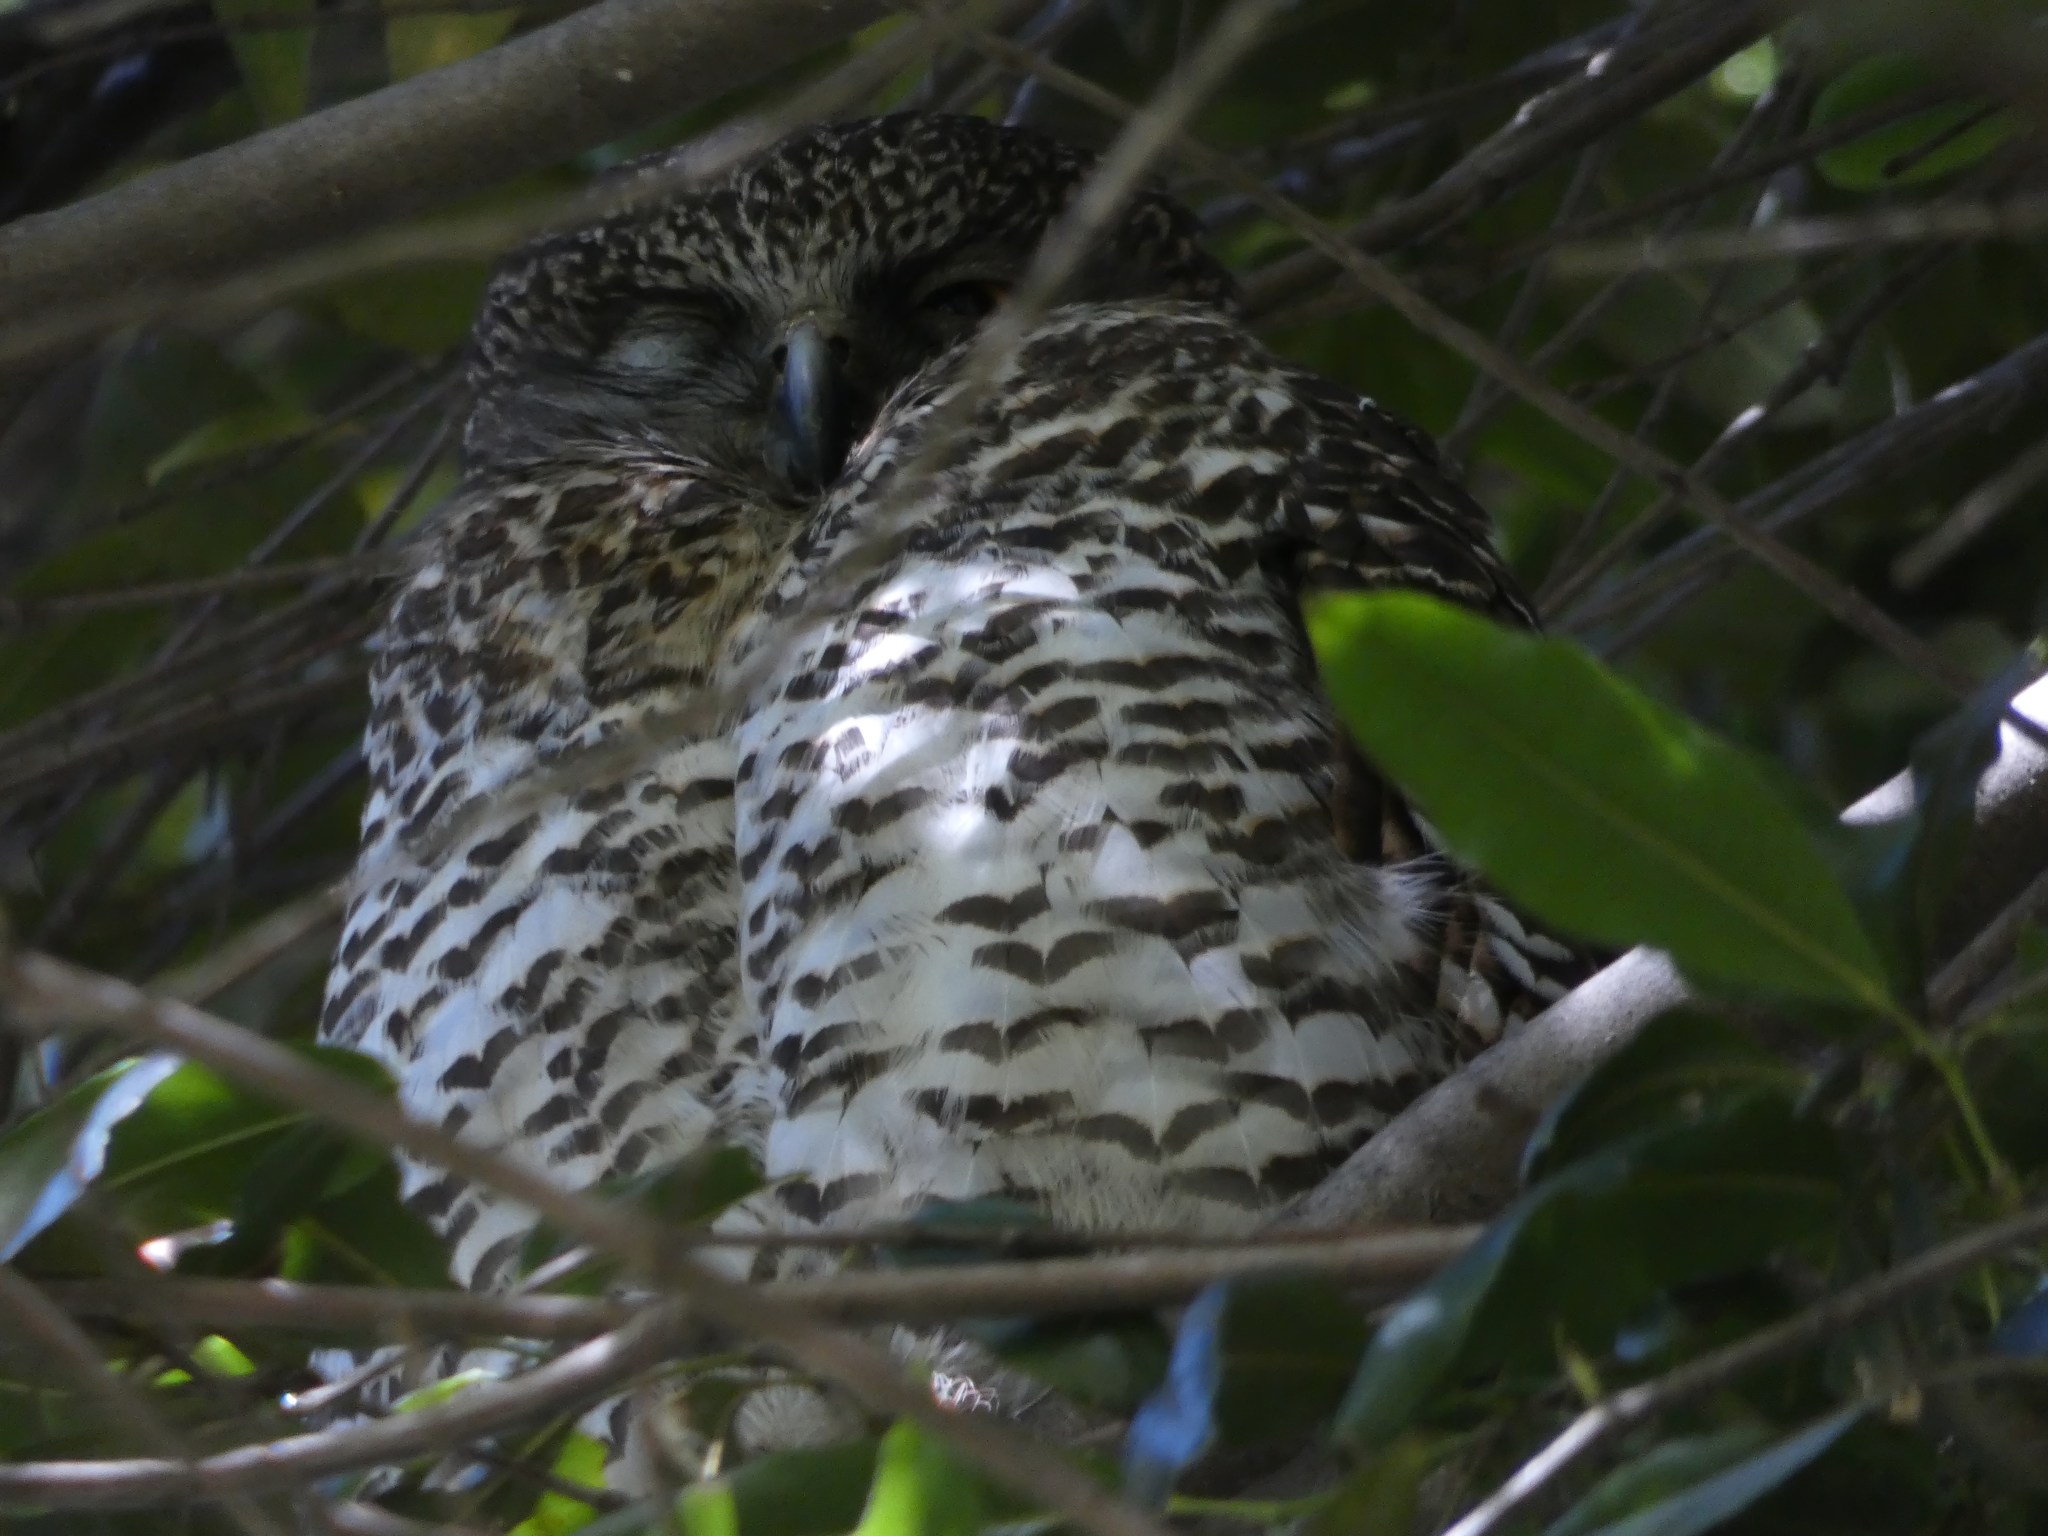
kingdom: Animalia
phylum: Chordata
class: Aves
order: Strigiformes
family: Strigidae
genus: Ninox
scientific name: Ninox strenua
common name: Powerful owl
